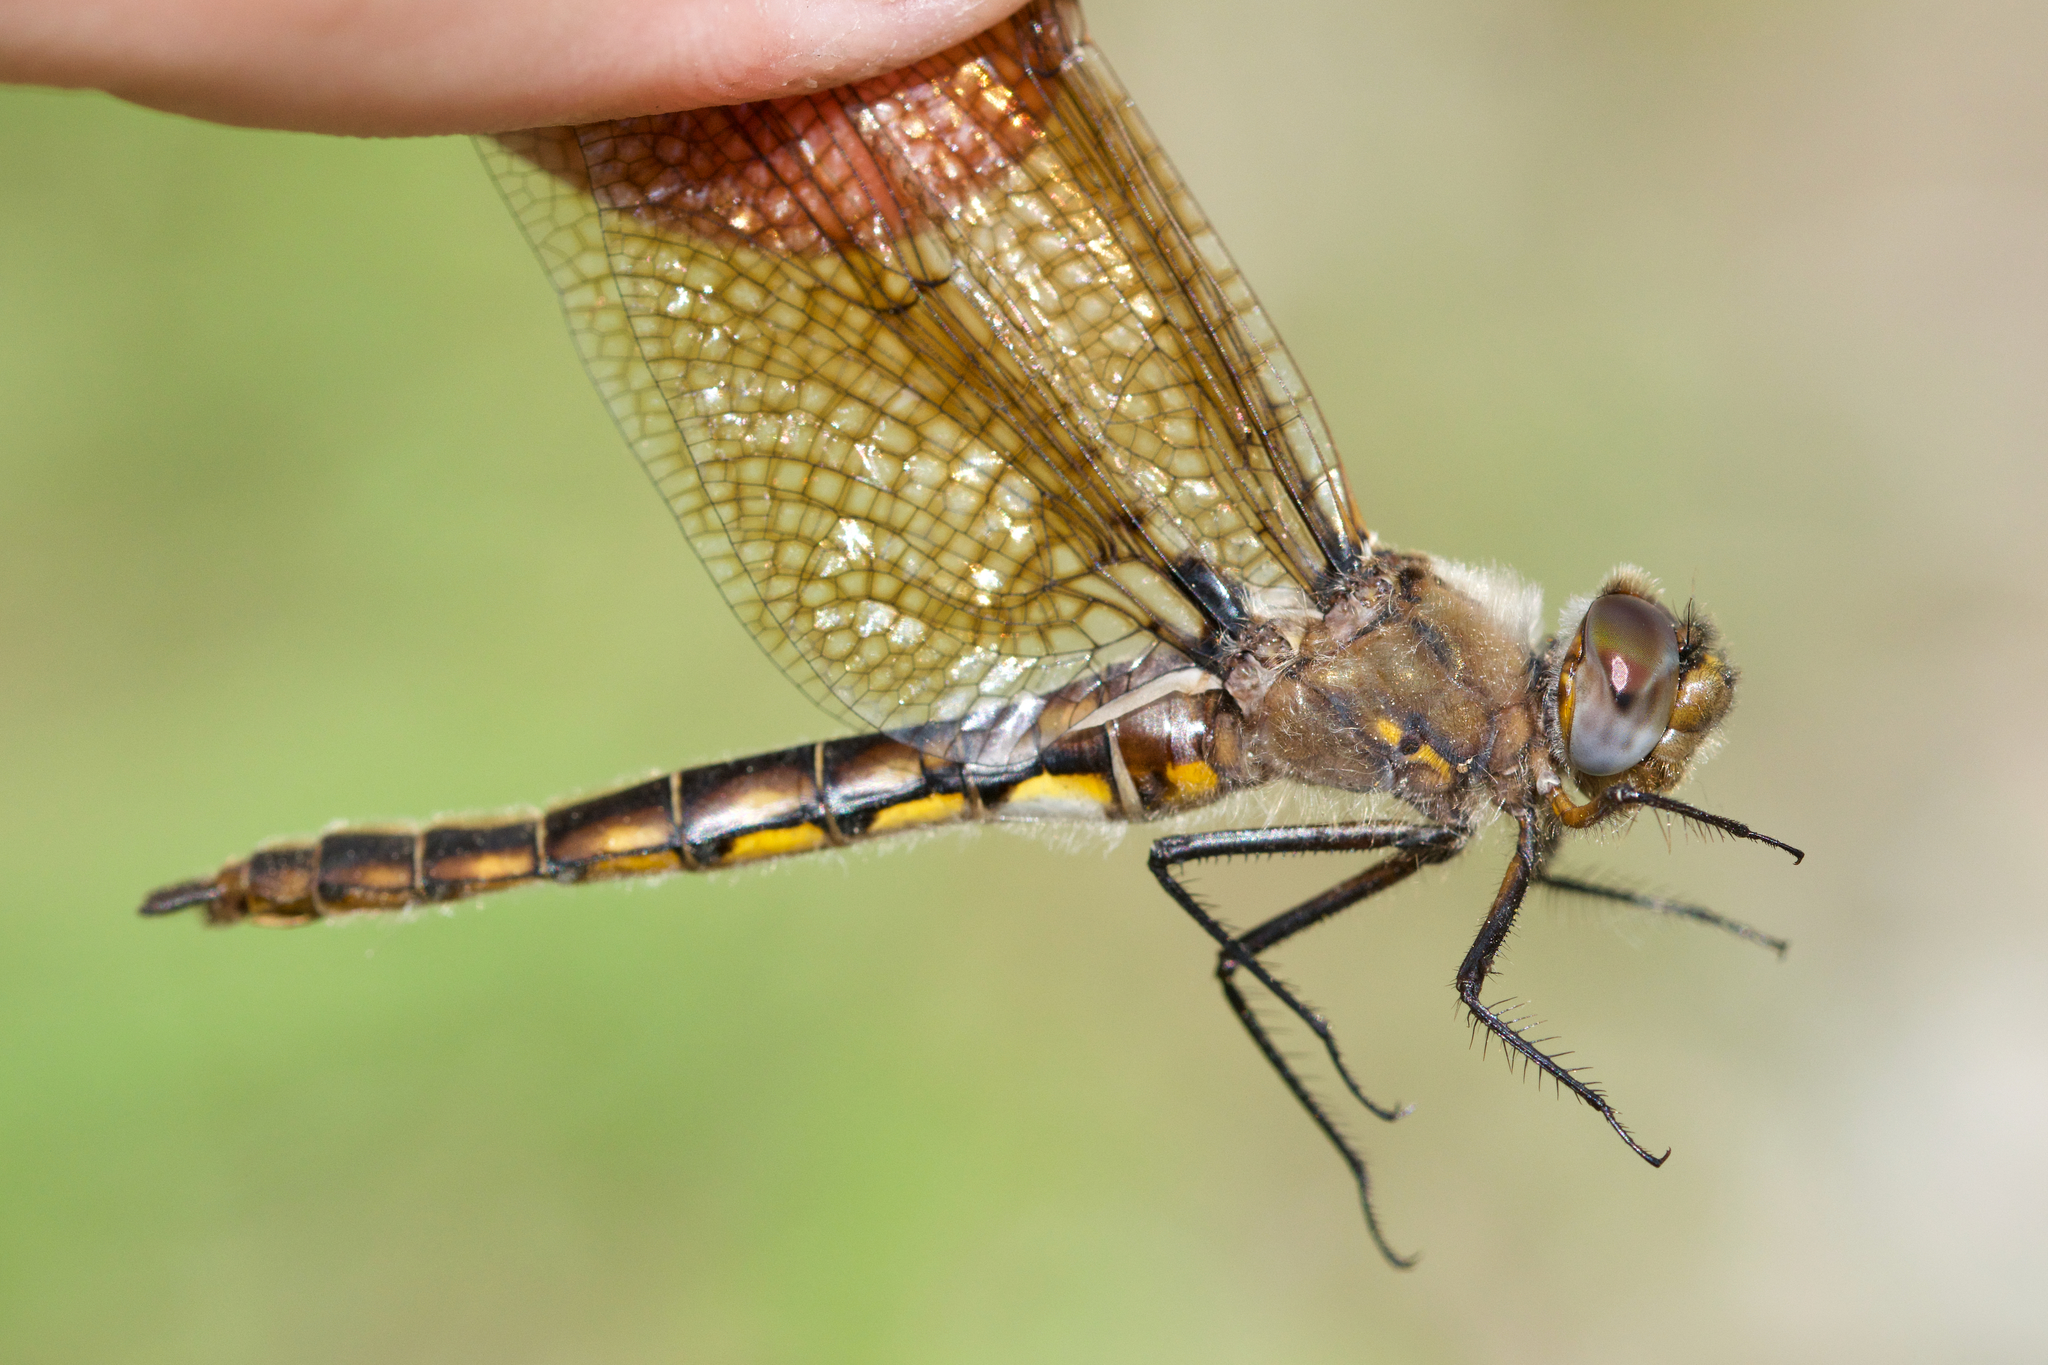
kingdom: Animalia
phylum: Arthropoda
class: Insecta
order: Odonata
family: Corduliidae
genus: Epitheca
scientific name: Epitheca canis
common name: Beaverpond baskettail
